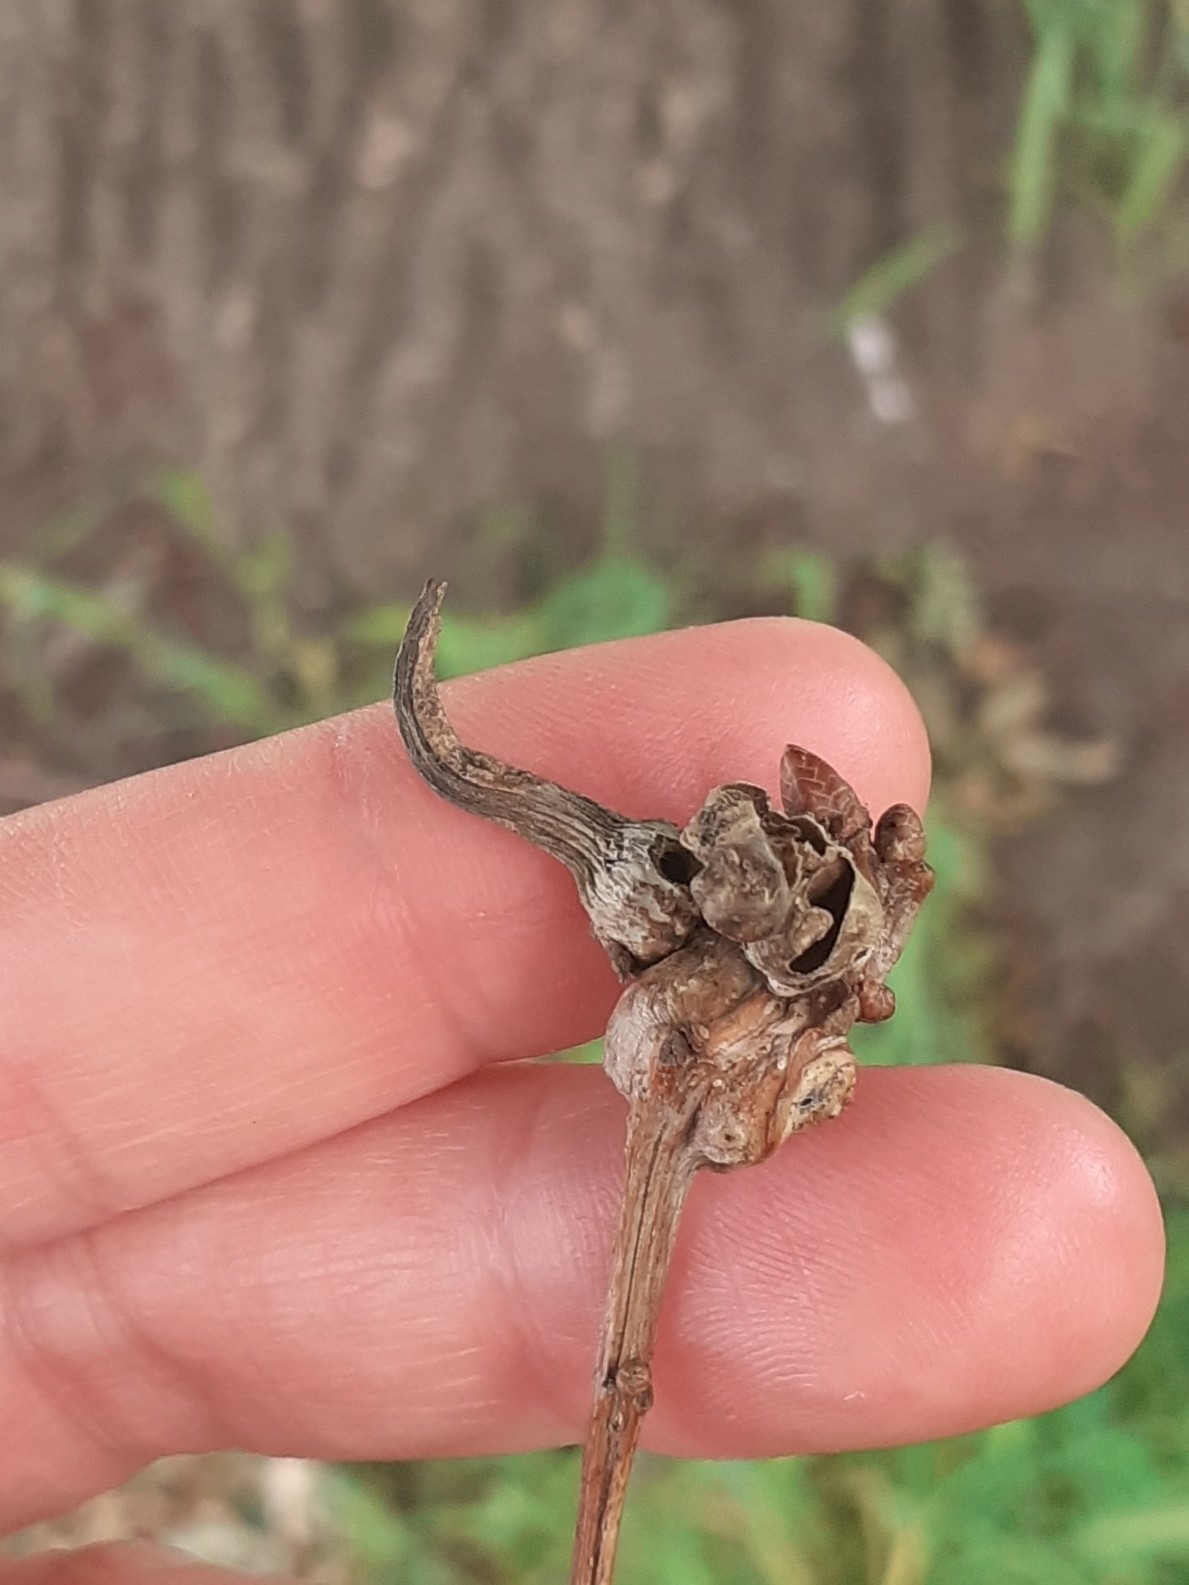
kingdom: Animalia
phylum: Arthropoda
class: Insecta
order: Hymenoptera
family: Cynipidae
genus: Andricus
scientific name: Andricus aries
